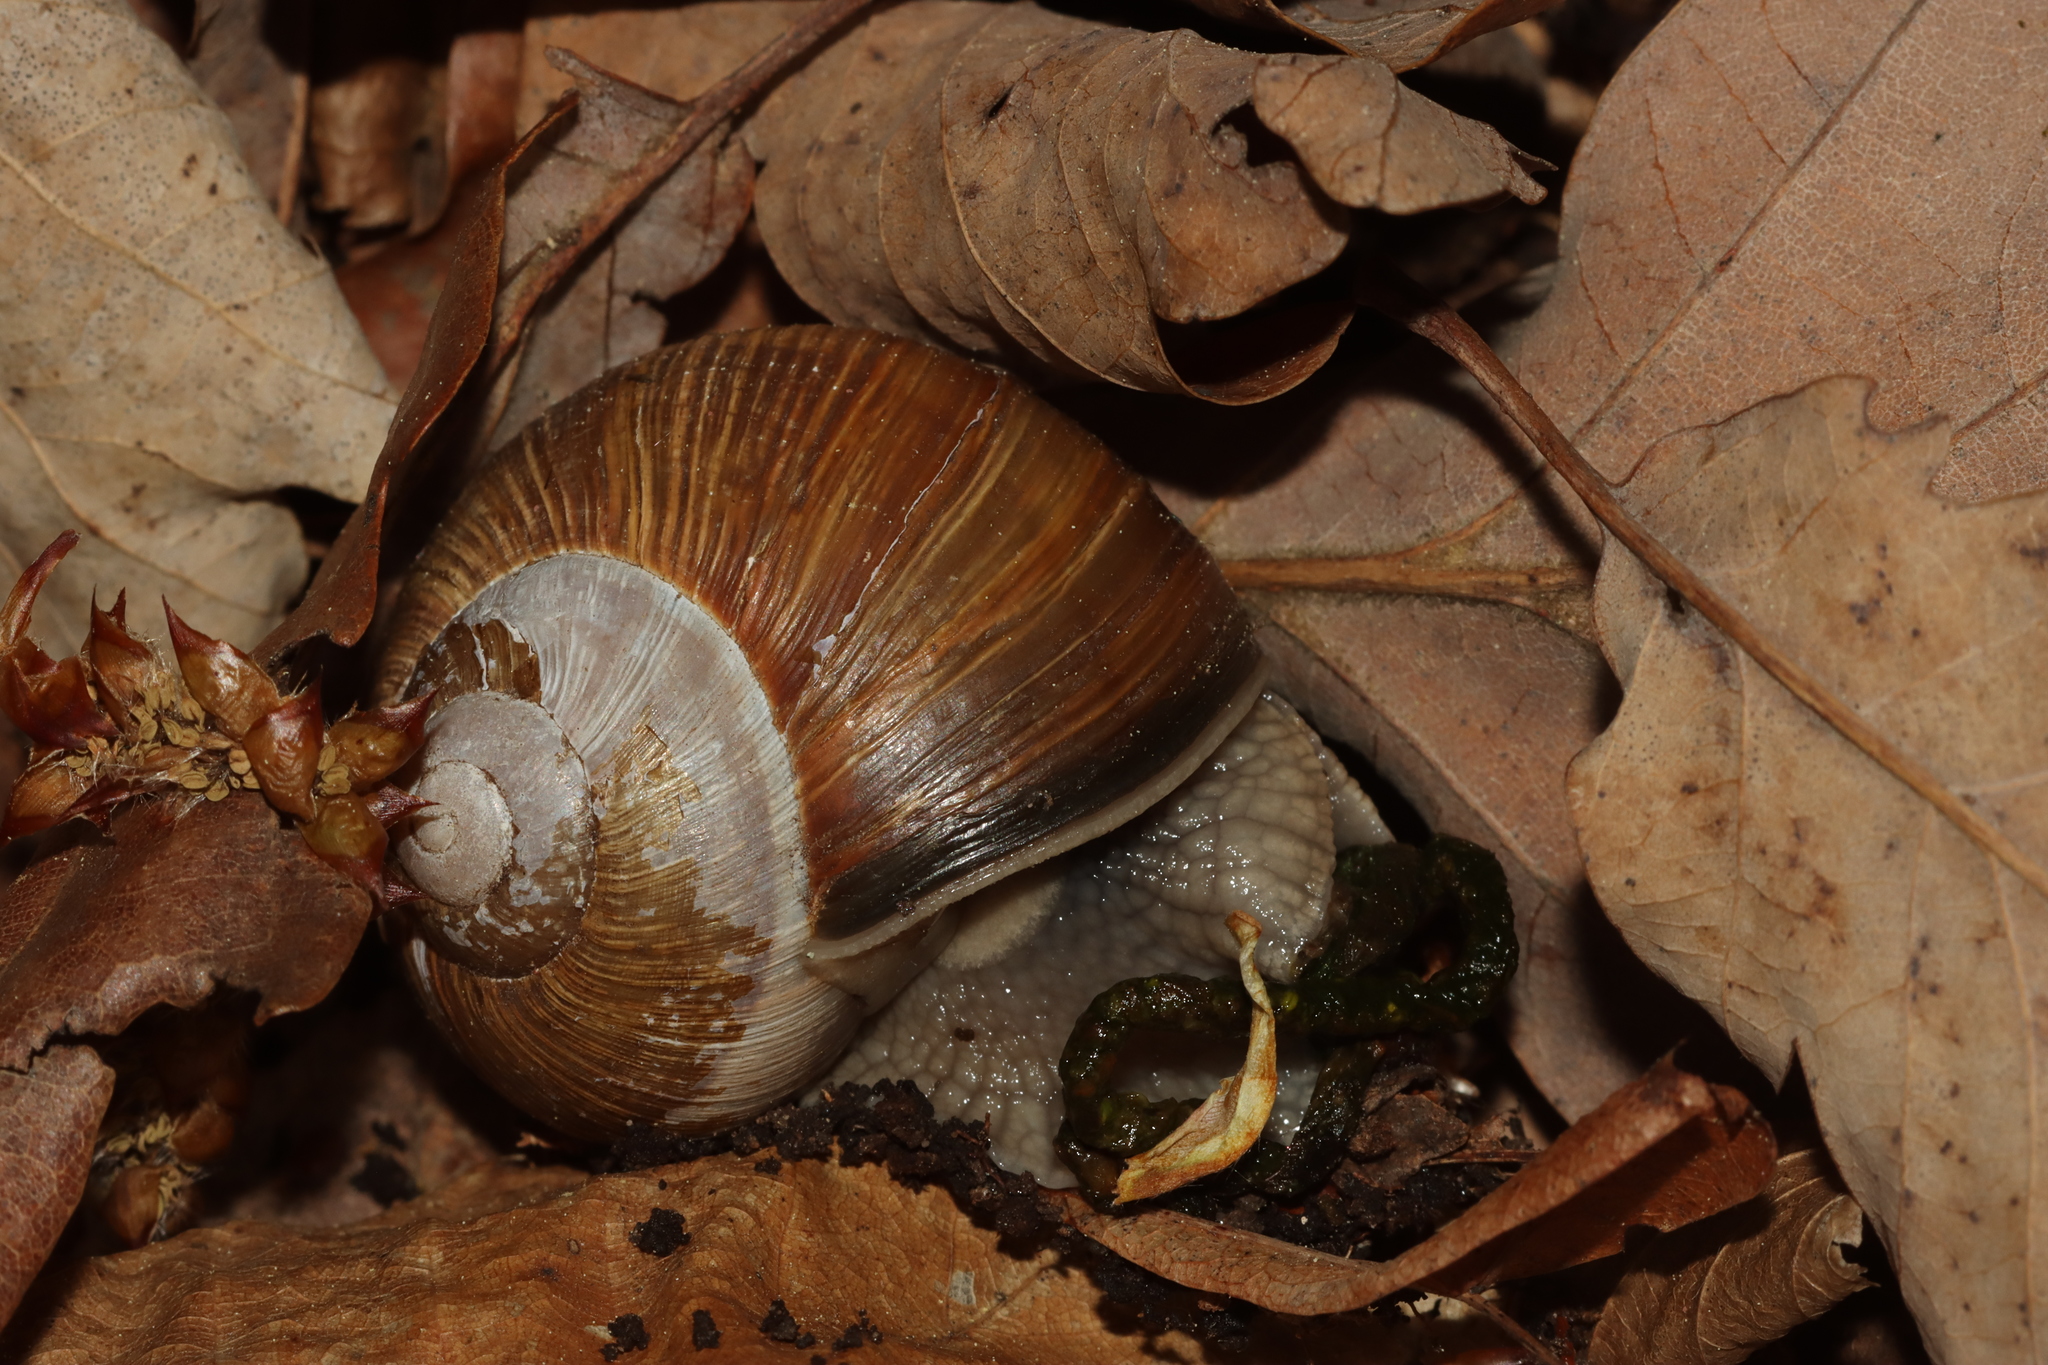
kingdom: Animalia
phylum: Mollusca
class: Gastropoda
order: Stylommatophora
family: Helicidae
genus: Helix
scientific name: Helix pomatia
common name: Roman snail
